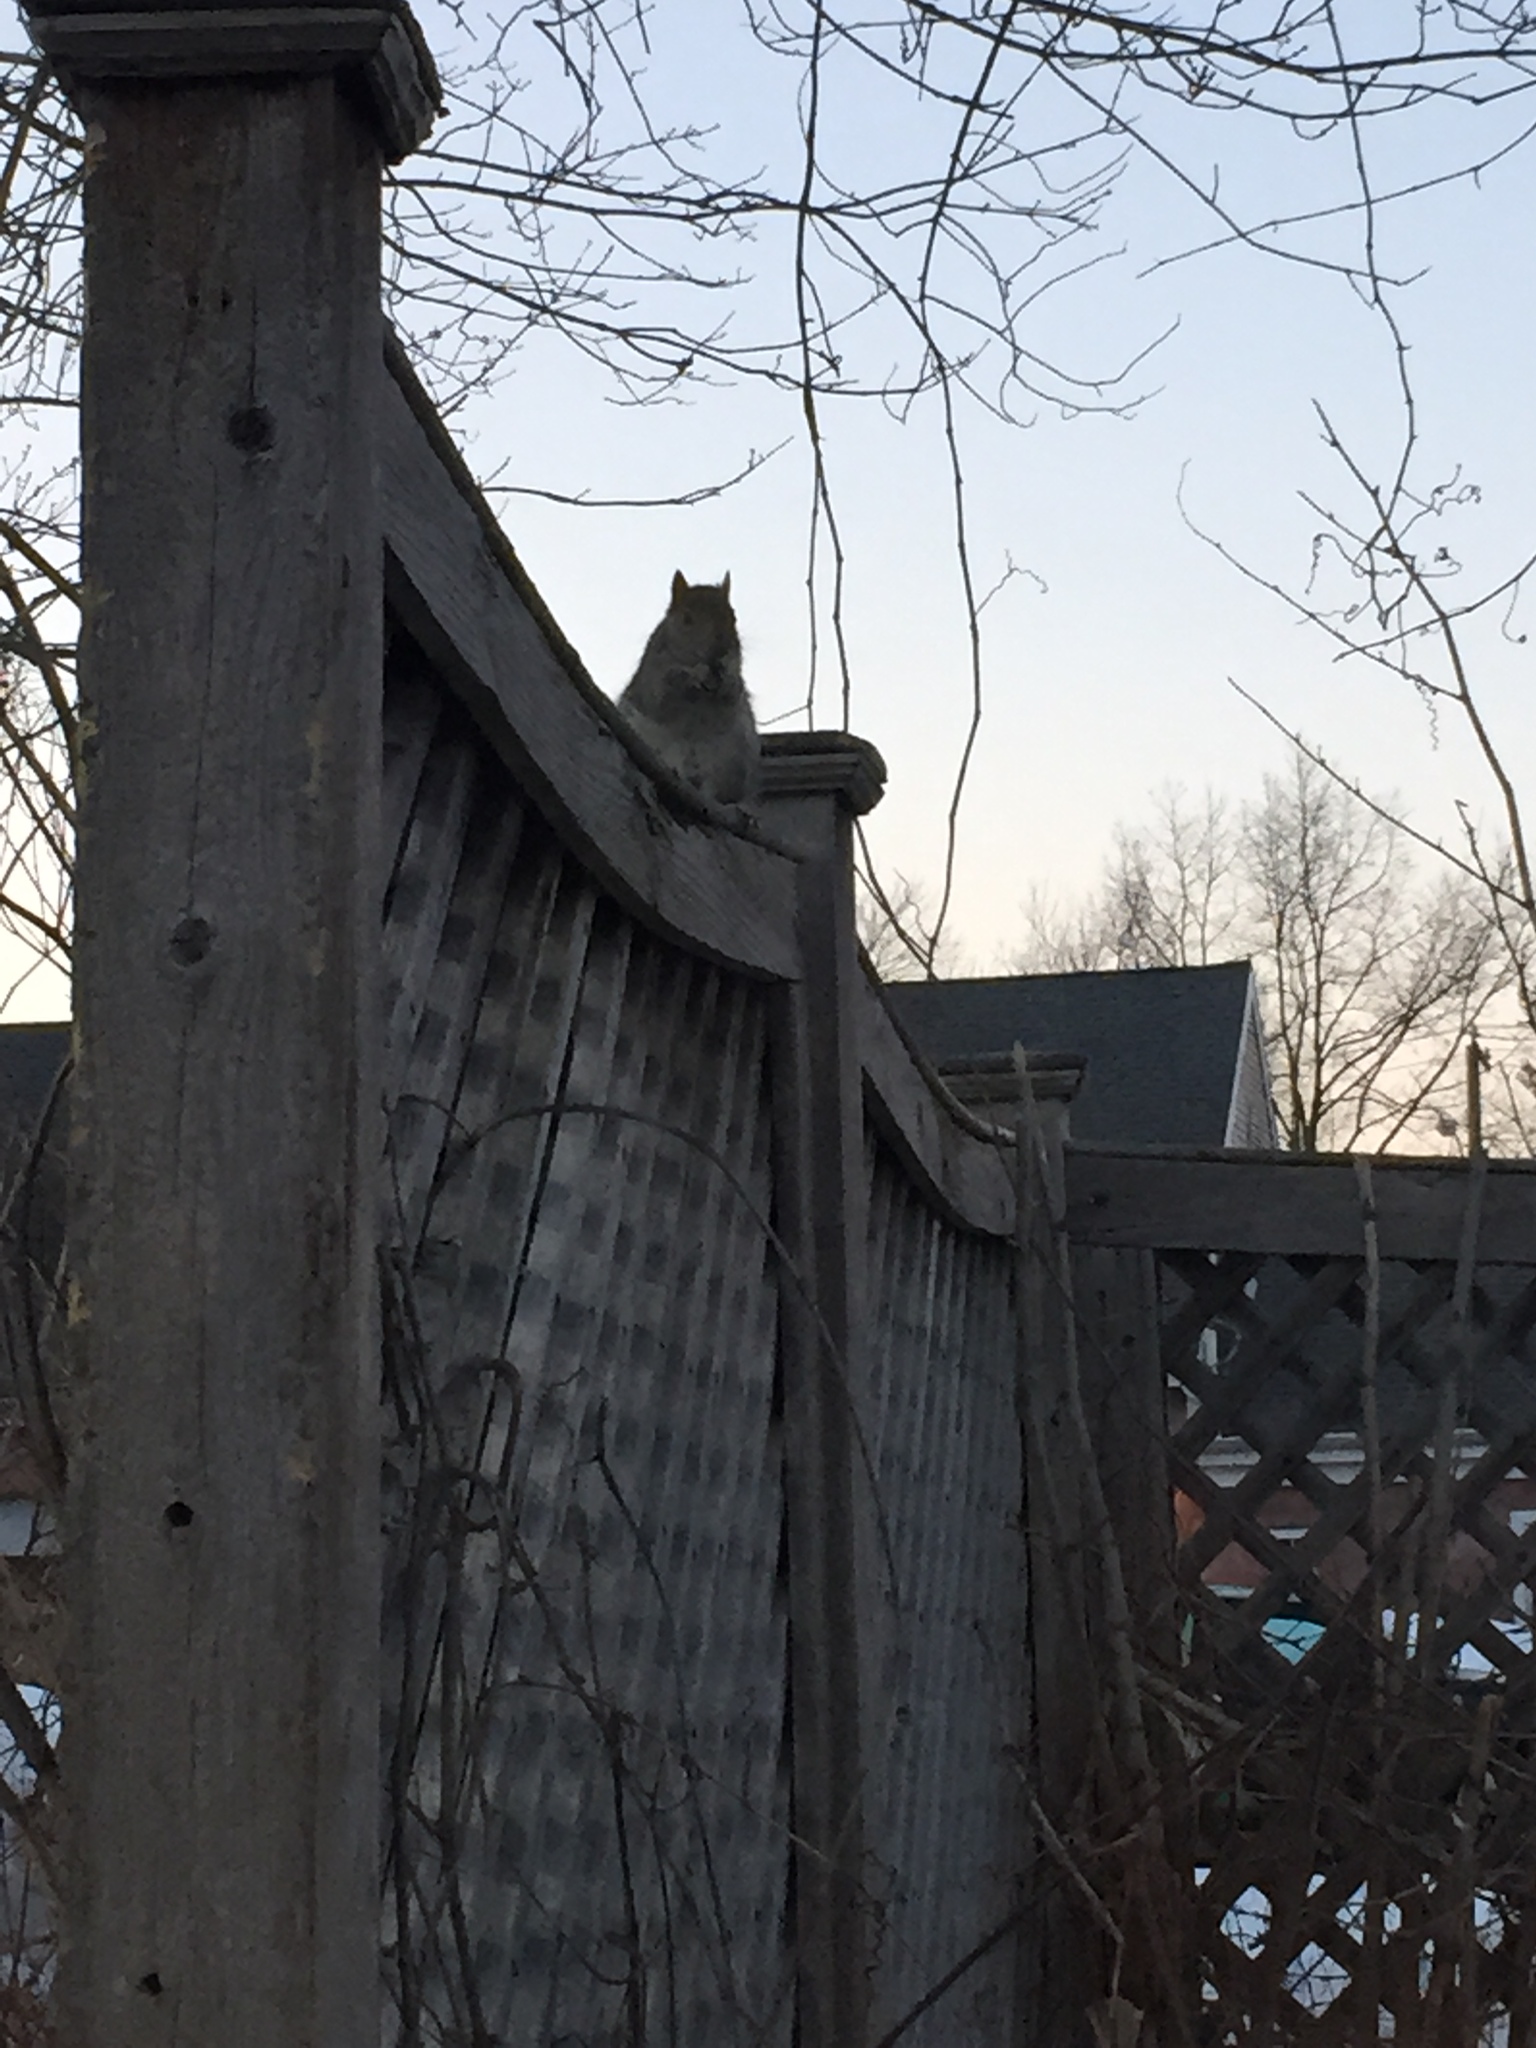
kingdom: Animalia
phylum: Chordata
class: Mammalia
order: Rodentia
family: Sciuridae
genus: Sciurus
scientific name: Sciurus carolinensis
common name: Eastern gray squirrel
